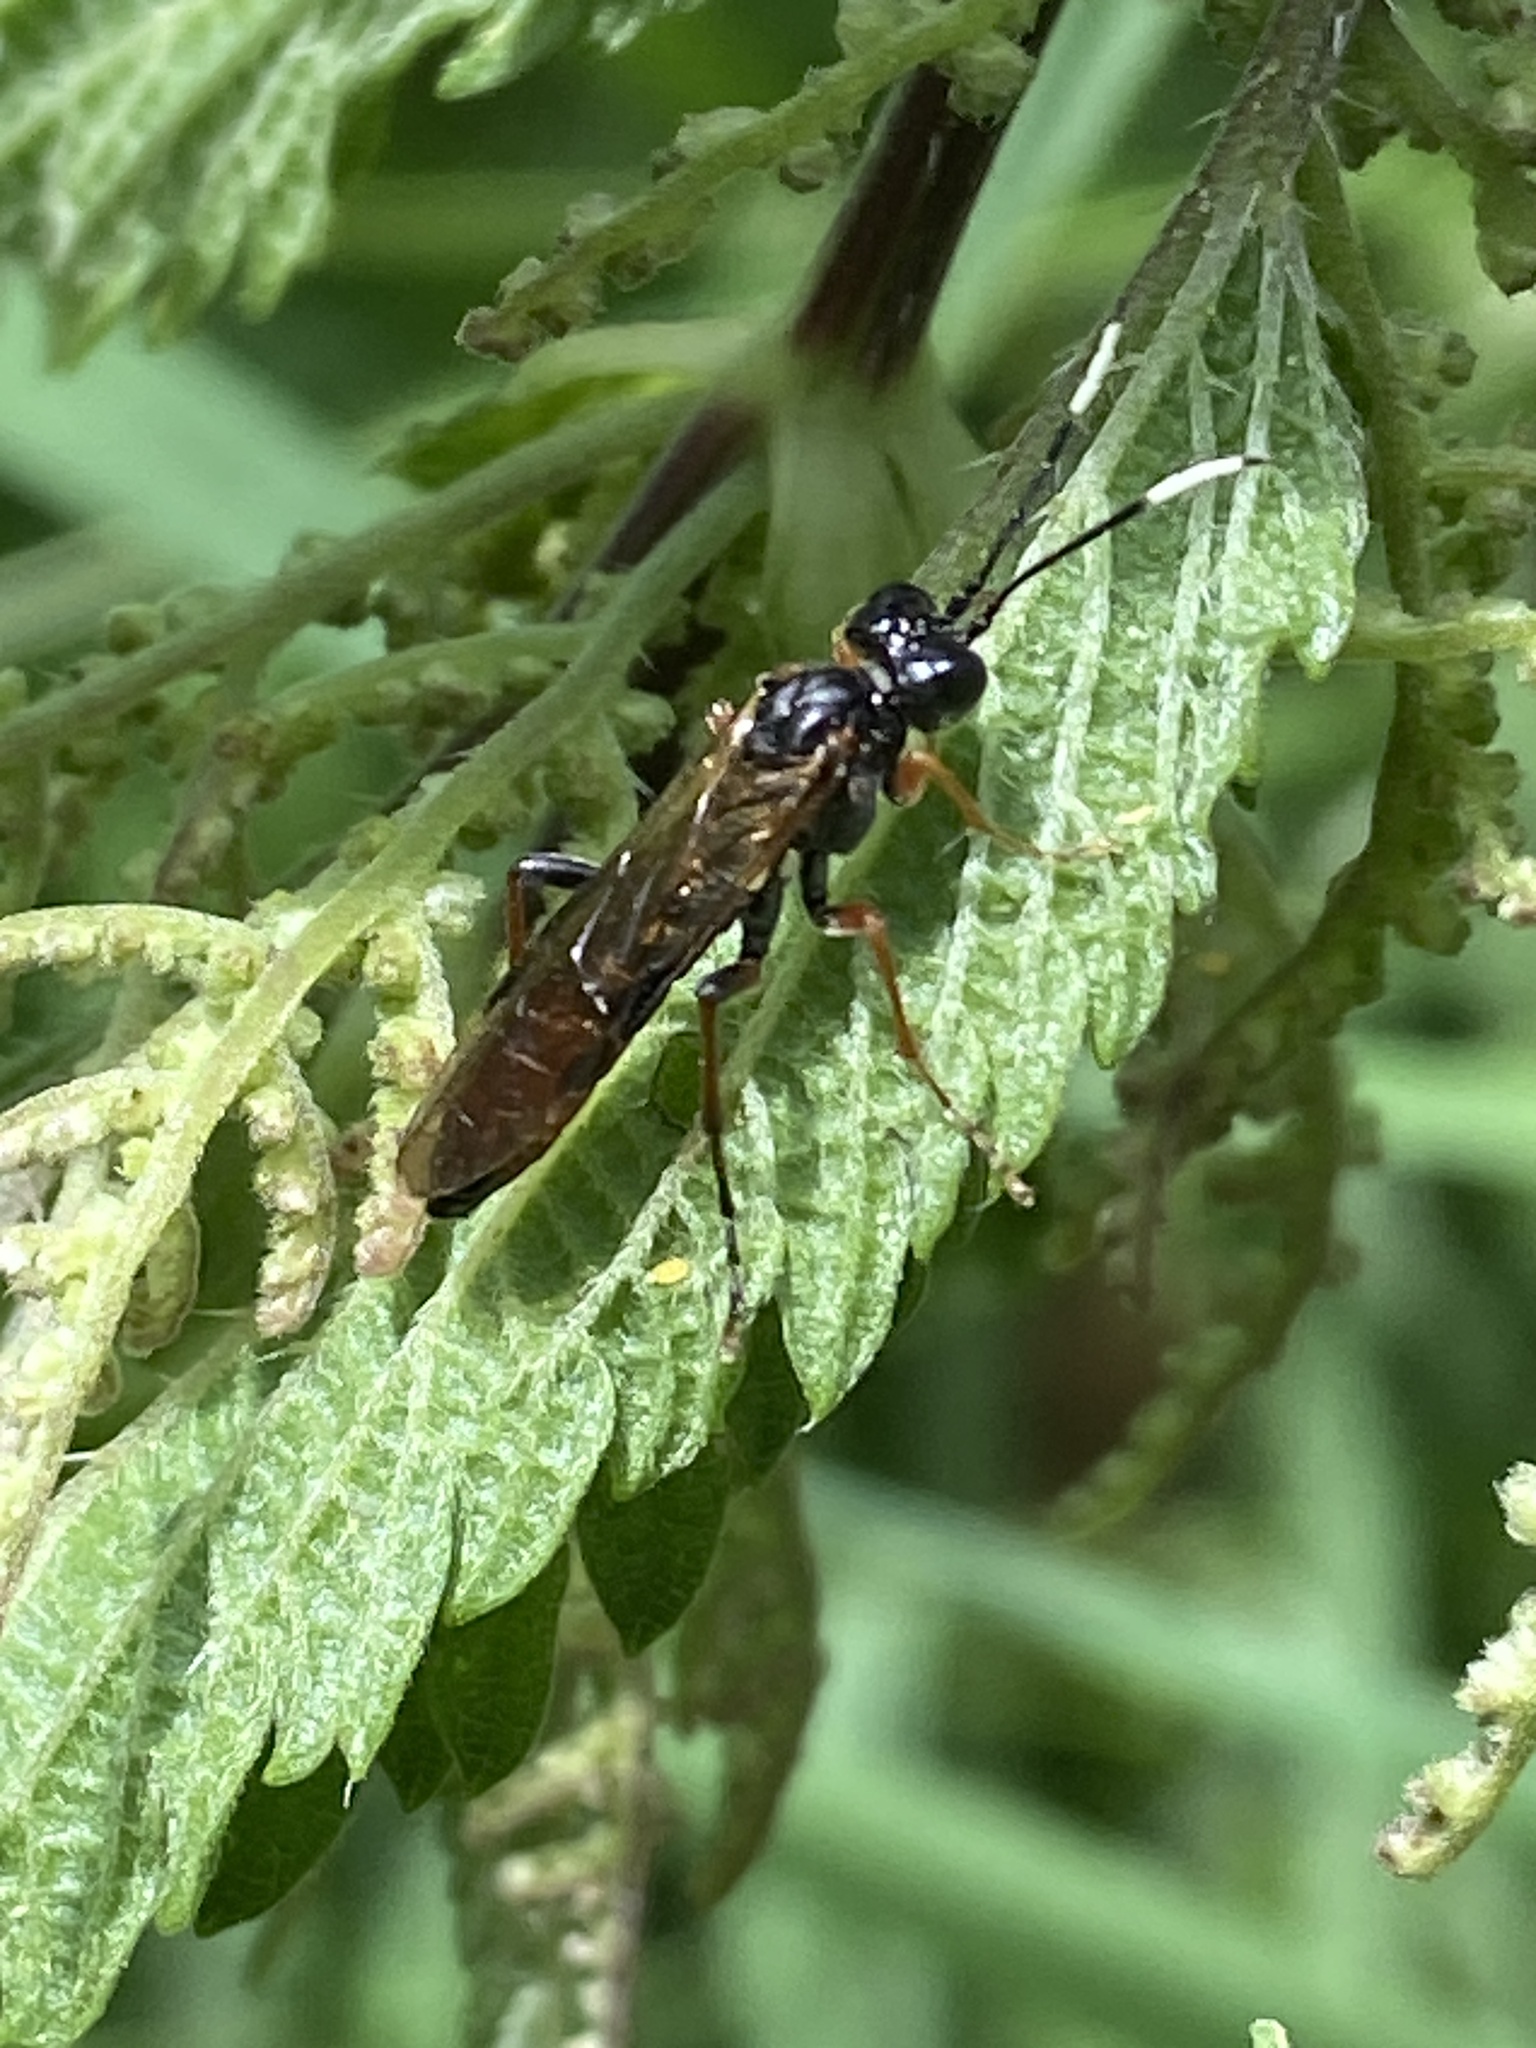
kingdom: Animalia
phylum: Arthropoda
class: Insecta
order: Hymenoptera
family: Tenthredinidae
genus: Tenthredo
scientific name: Tenthredo colon
